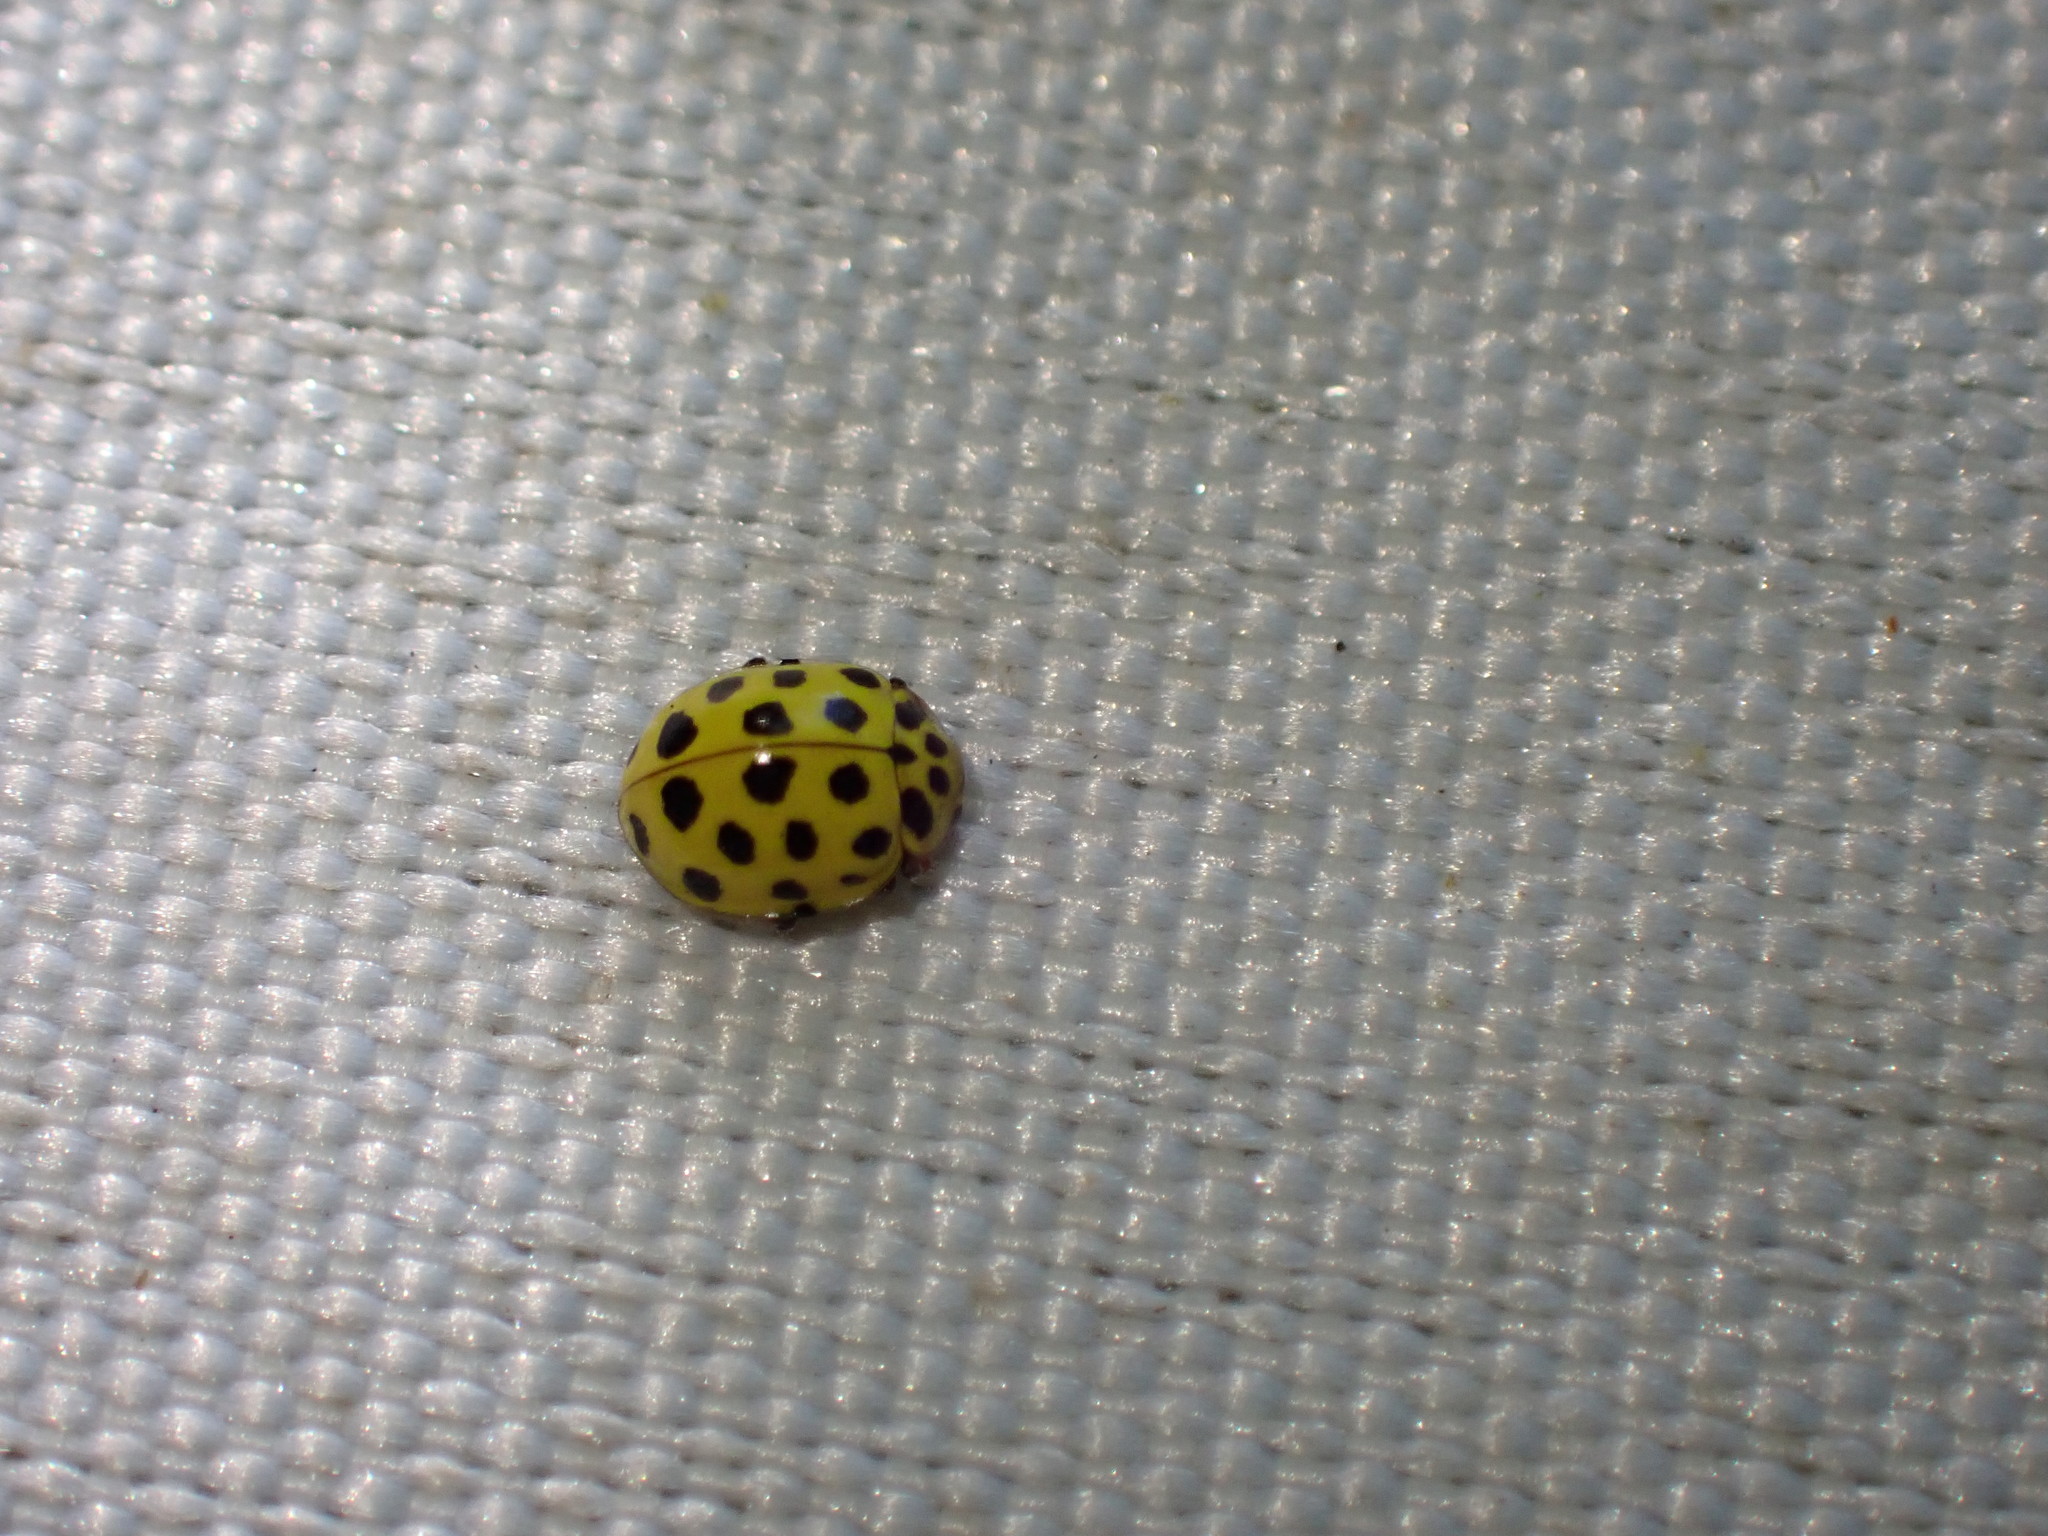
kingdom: Animalia
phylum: Arthropoda
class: Insecta
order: Coleoptera
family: Coccinellidae
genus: Psyllobora
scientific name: Psyllobora vigintiduopunctata
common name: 22-spot ladybird
